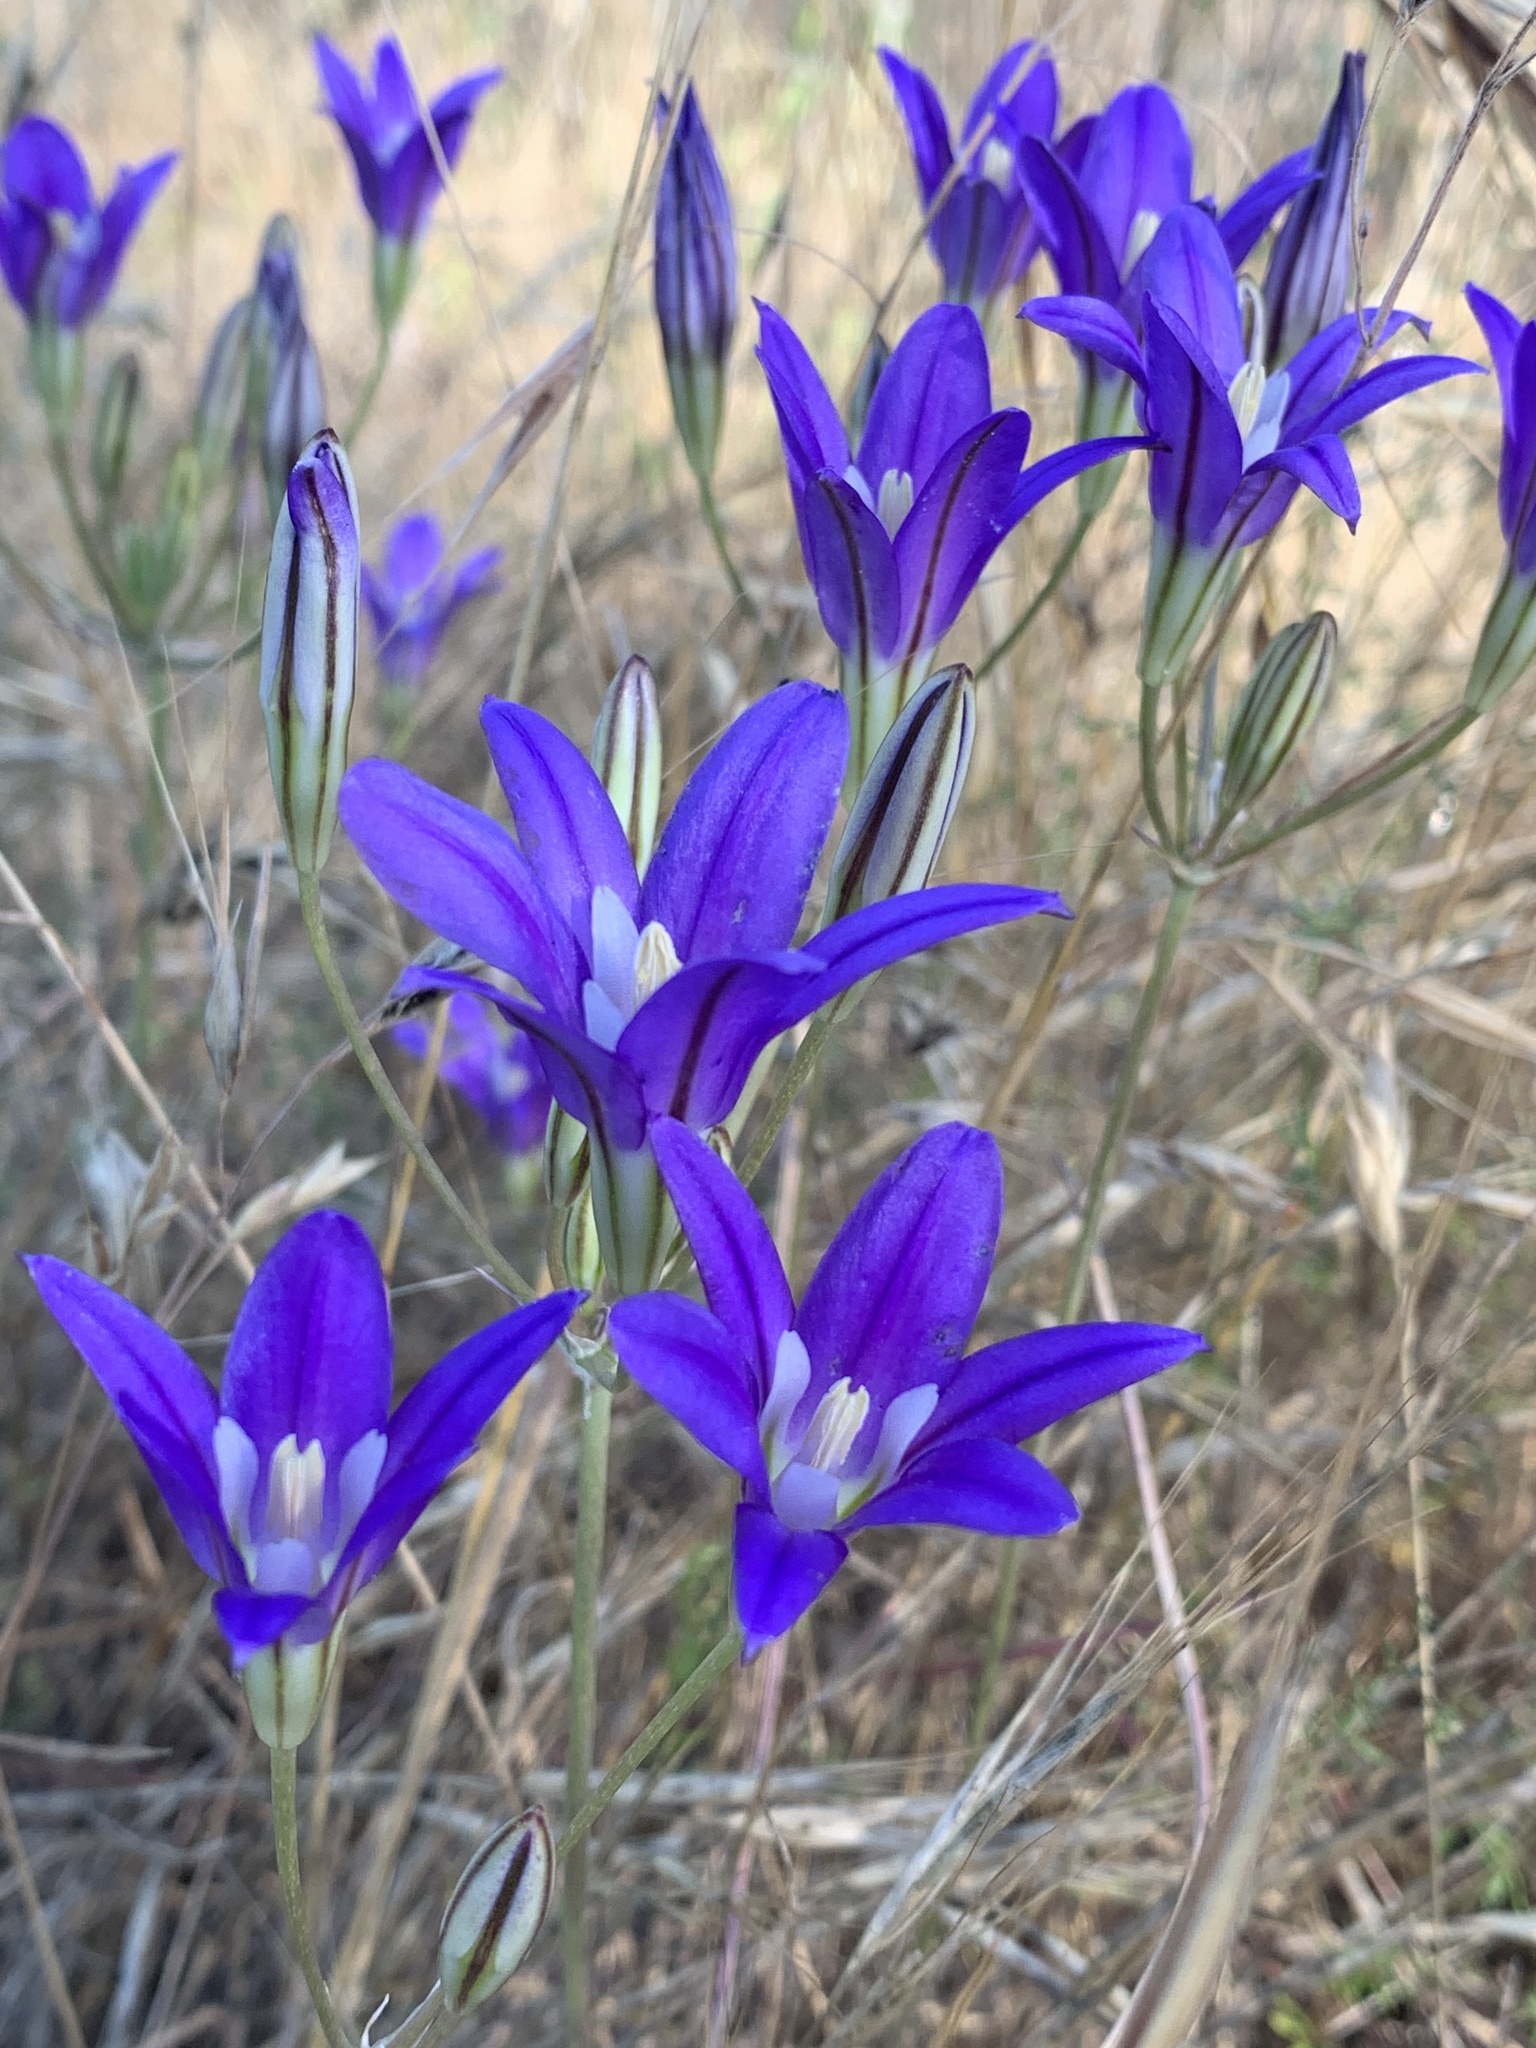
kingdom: Plantae
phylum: Tracheophyta
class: Liliopsida
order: Asparagales
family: Asparagaceae
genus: Brodiaea
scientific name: Brodiaea elegans
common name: Elegant cluster-lily
